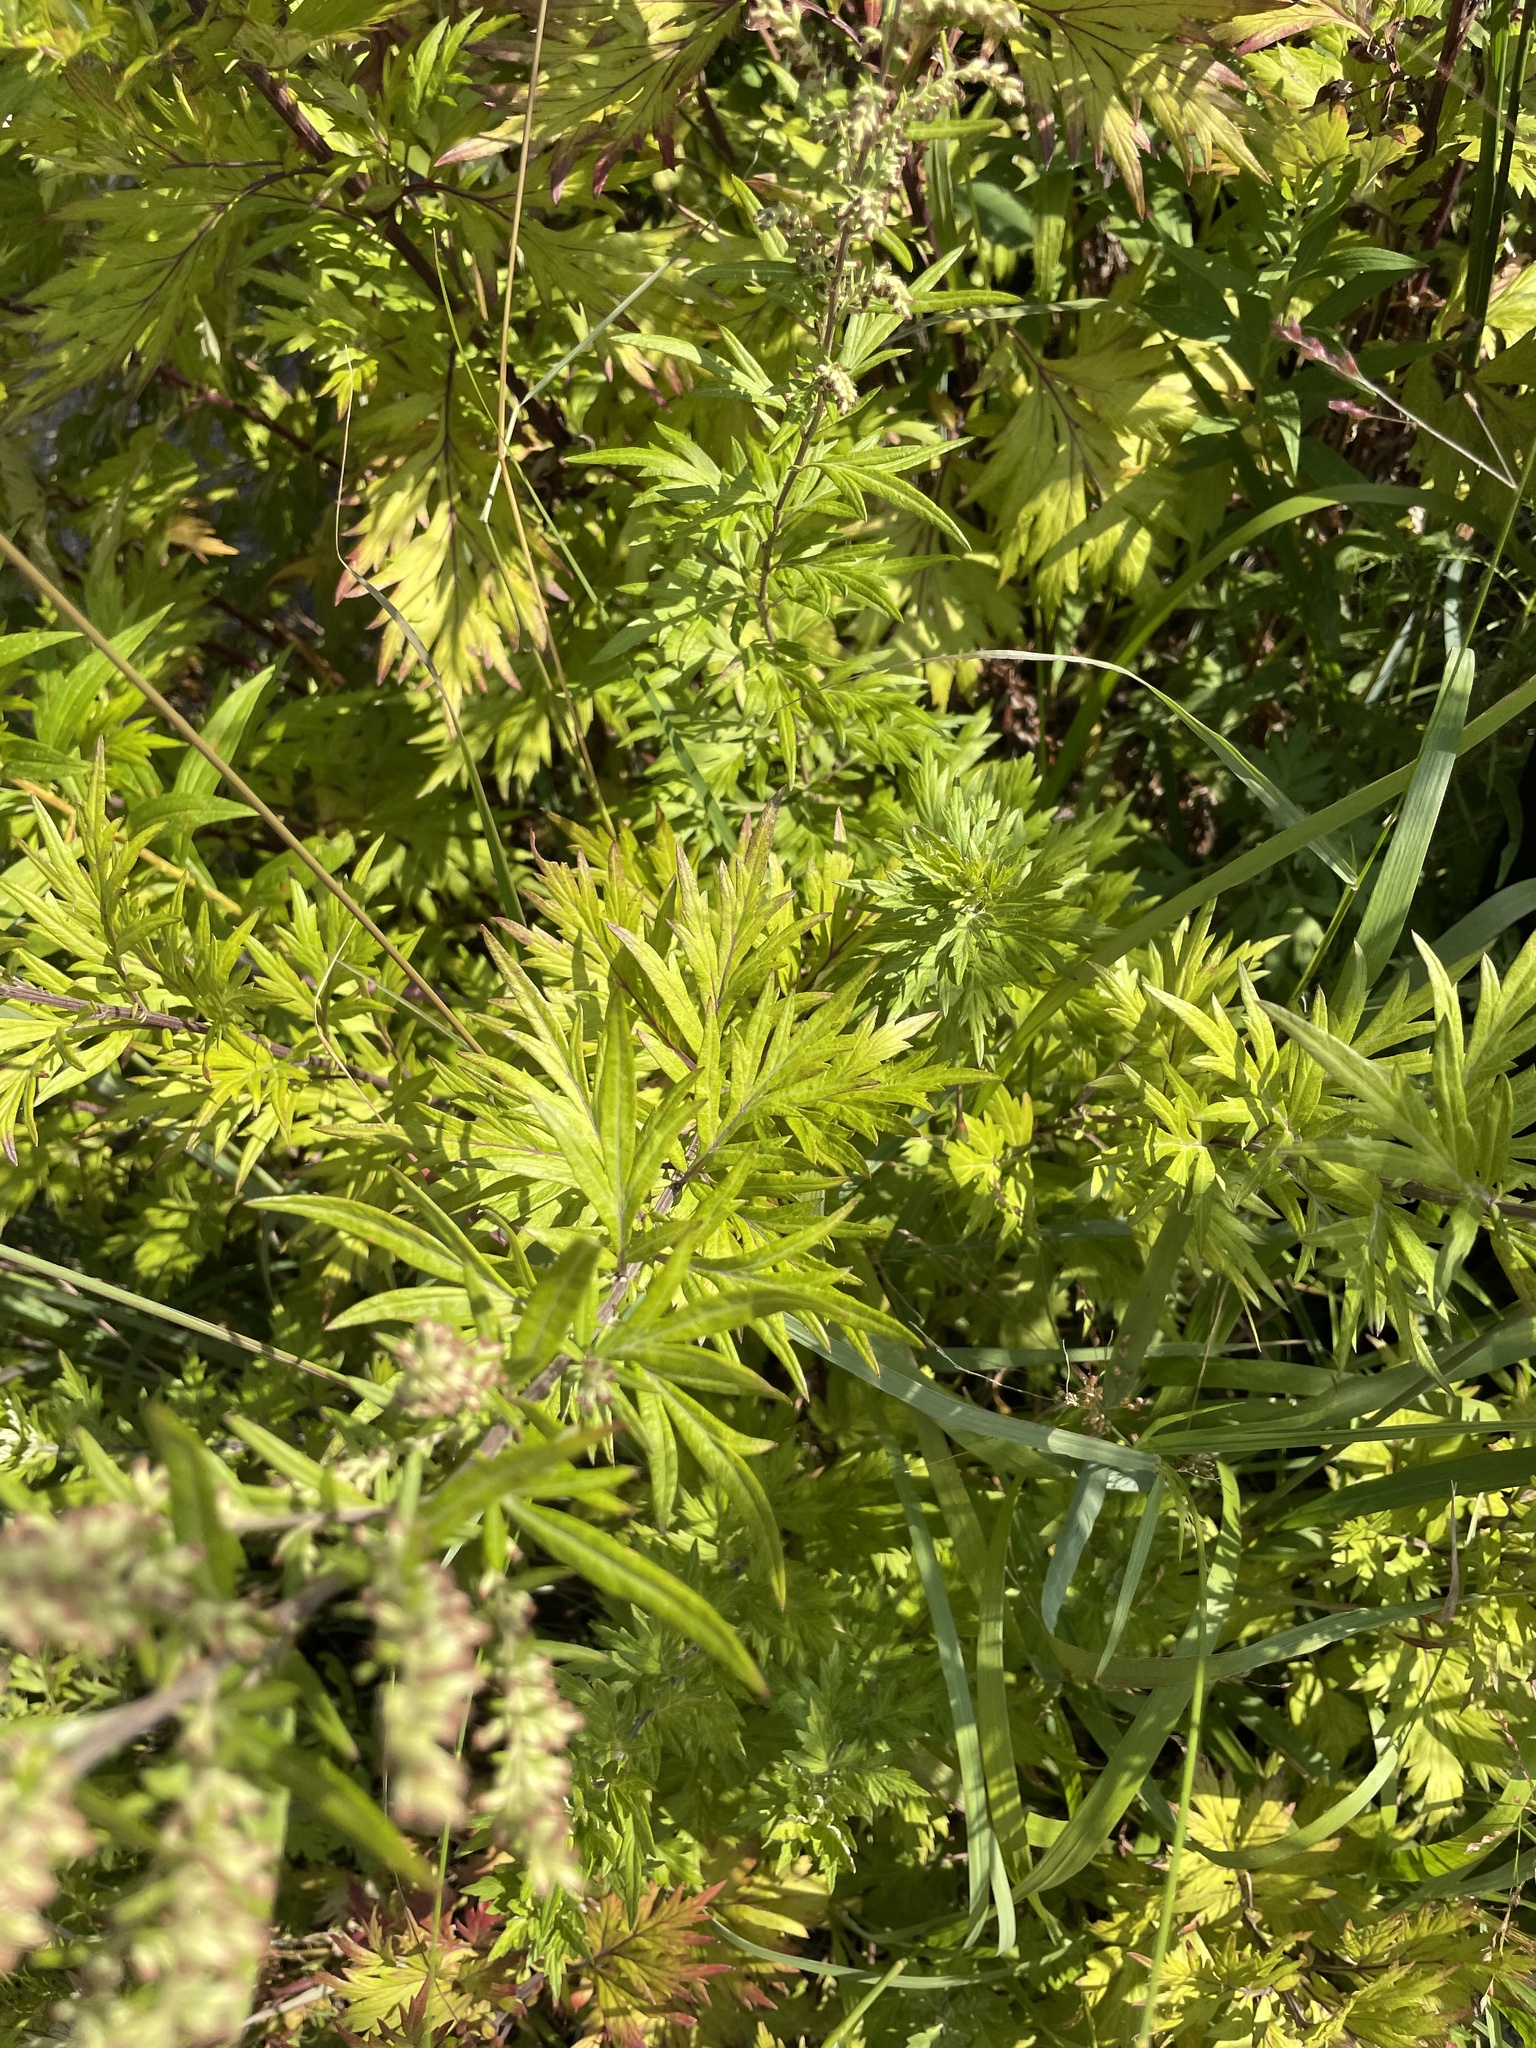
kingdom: Plantae
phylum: Tracheophyta
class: Magnoliopsida
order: Asterales
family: Asteraceae
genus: Artemisia
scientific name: Artemisia vulgaris
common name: Mugwort
